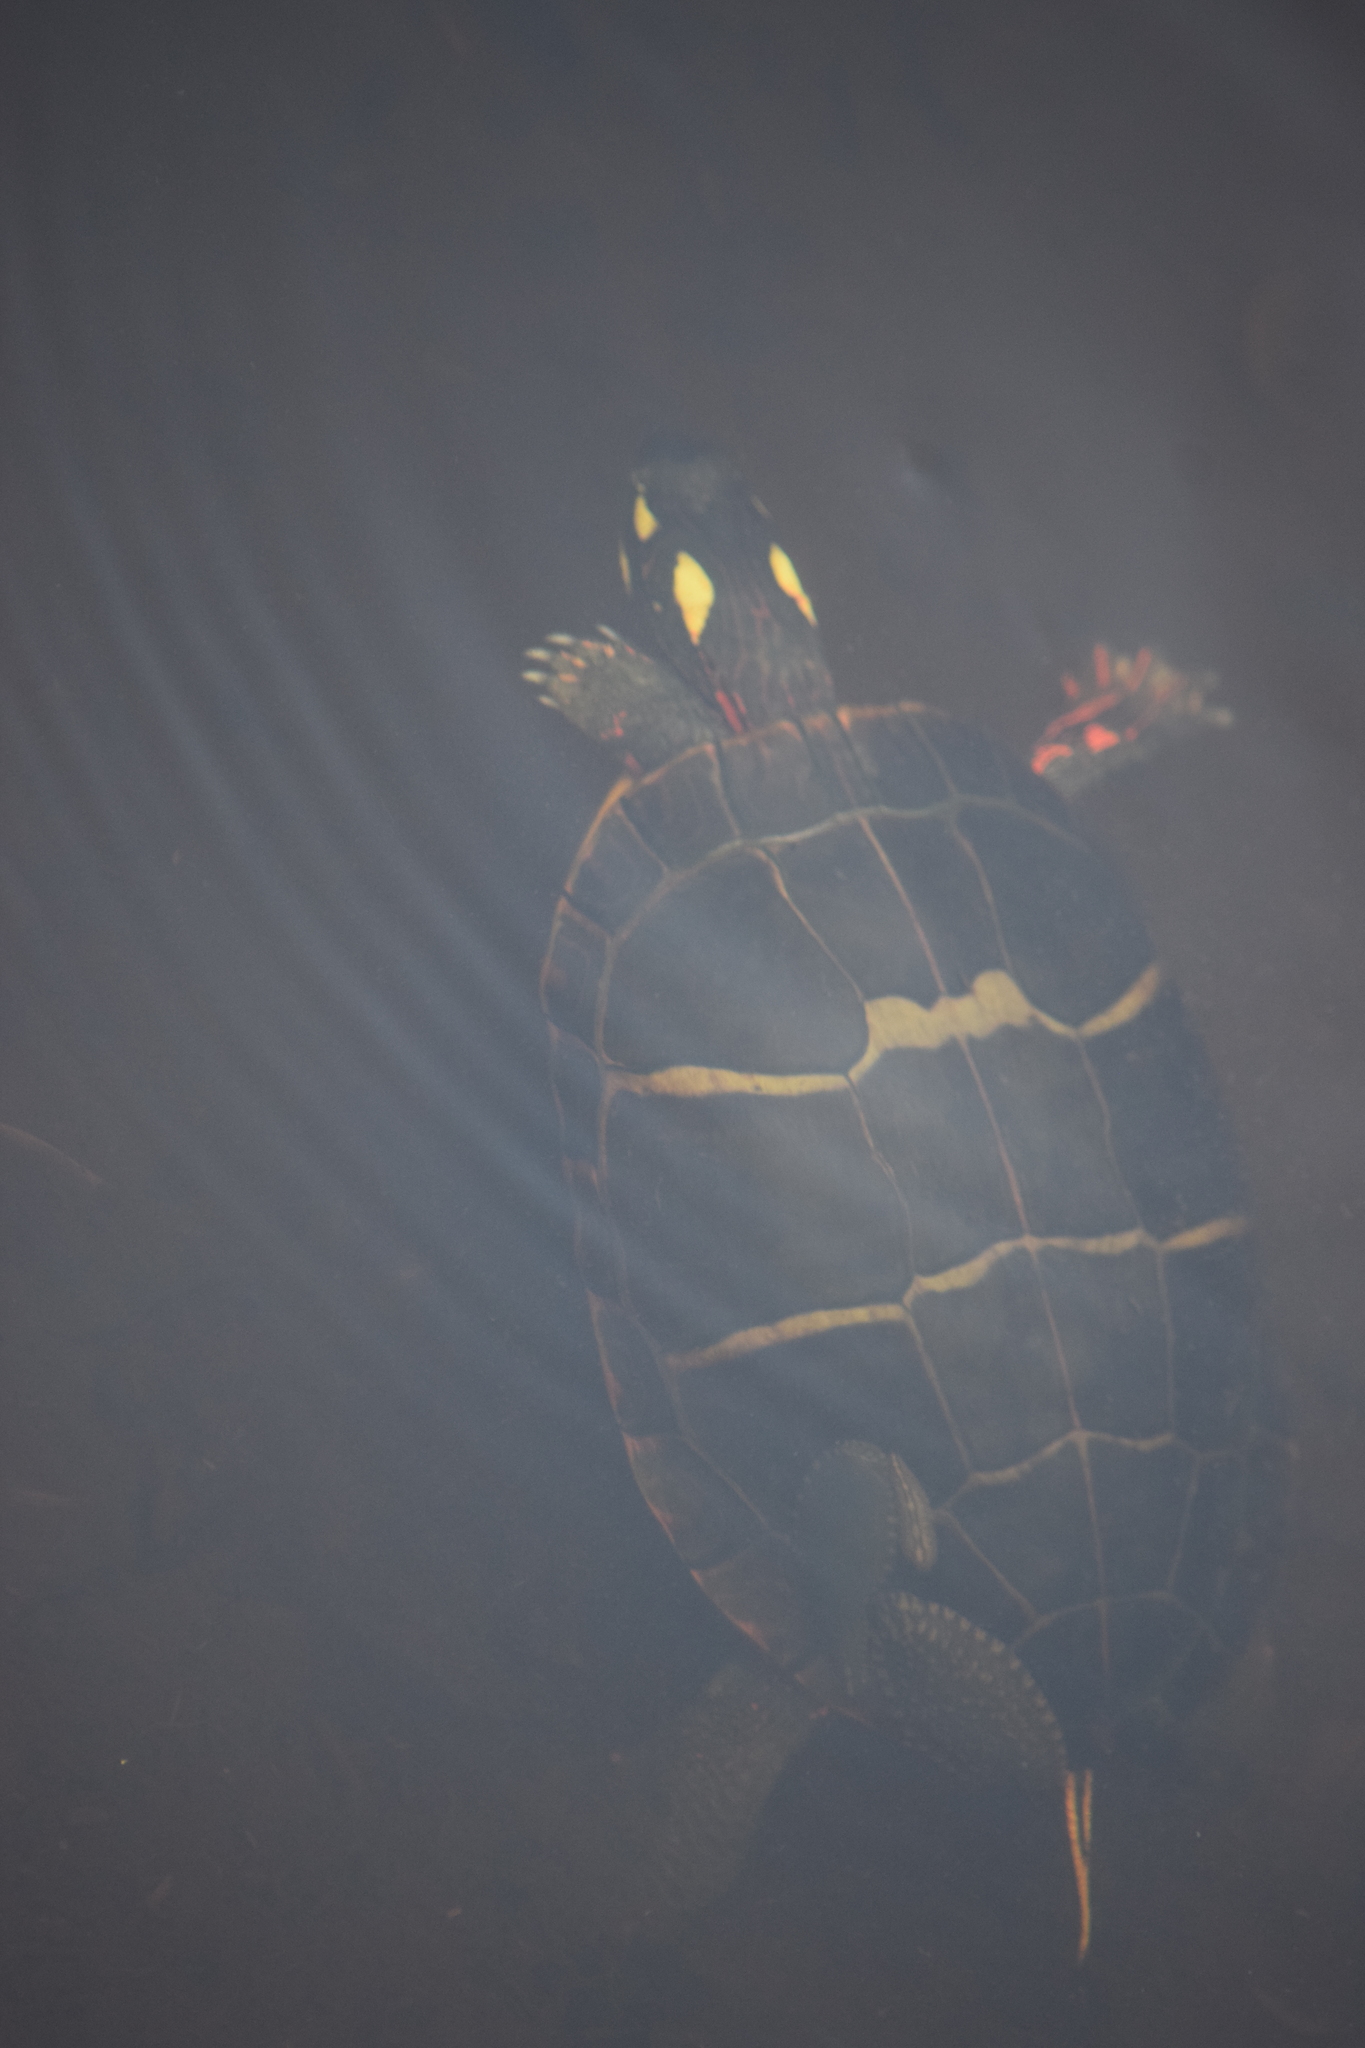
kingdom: Animalia
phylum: Chordata
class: Testudines
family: Emydidae
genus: Chrysemys
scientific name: Chrysemys picta
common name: Painted turtle
